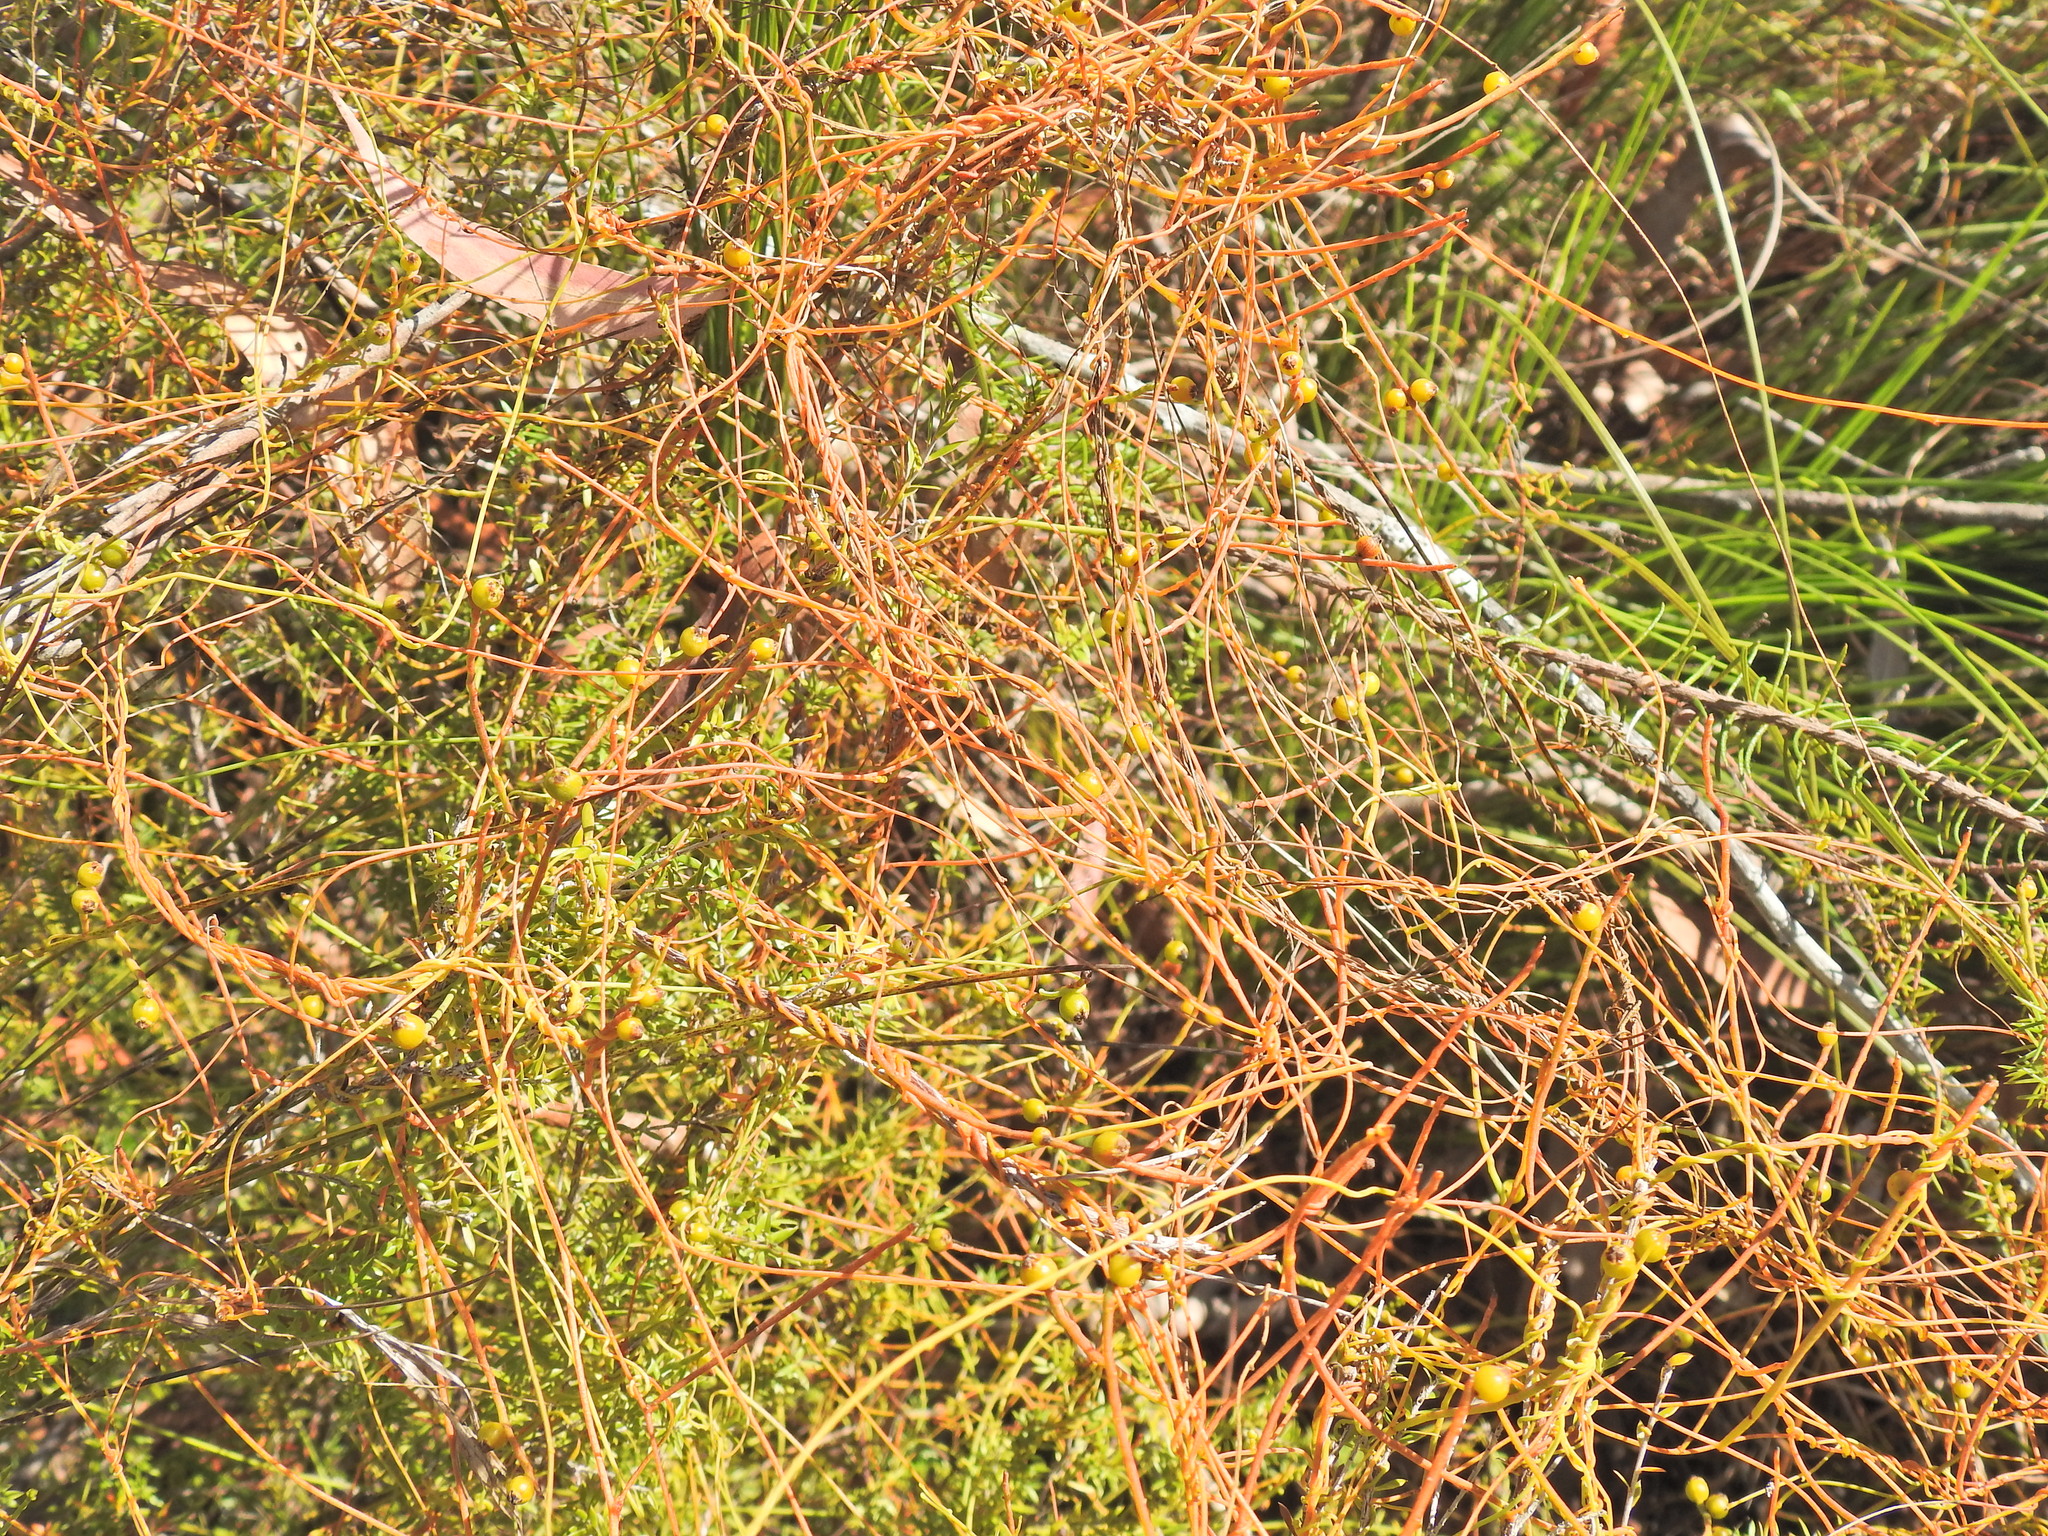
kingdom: Plantae
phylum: Tracheophyta
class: Magnoliopsida
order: Laurales
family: Lauraceae
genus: Cassytha
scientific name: Cassytha filiformis
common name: Dodder-laurel
